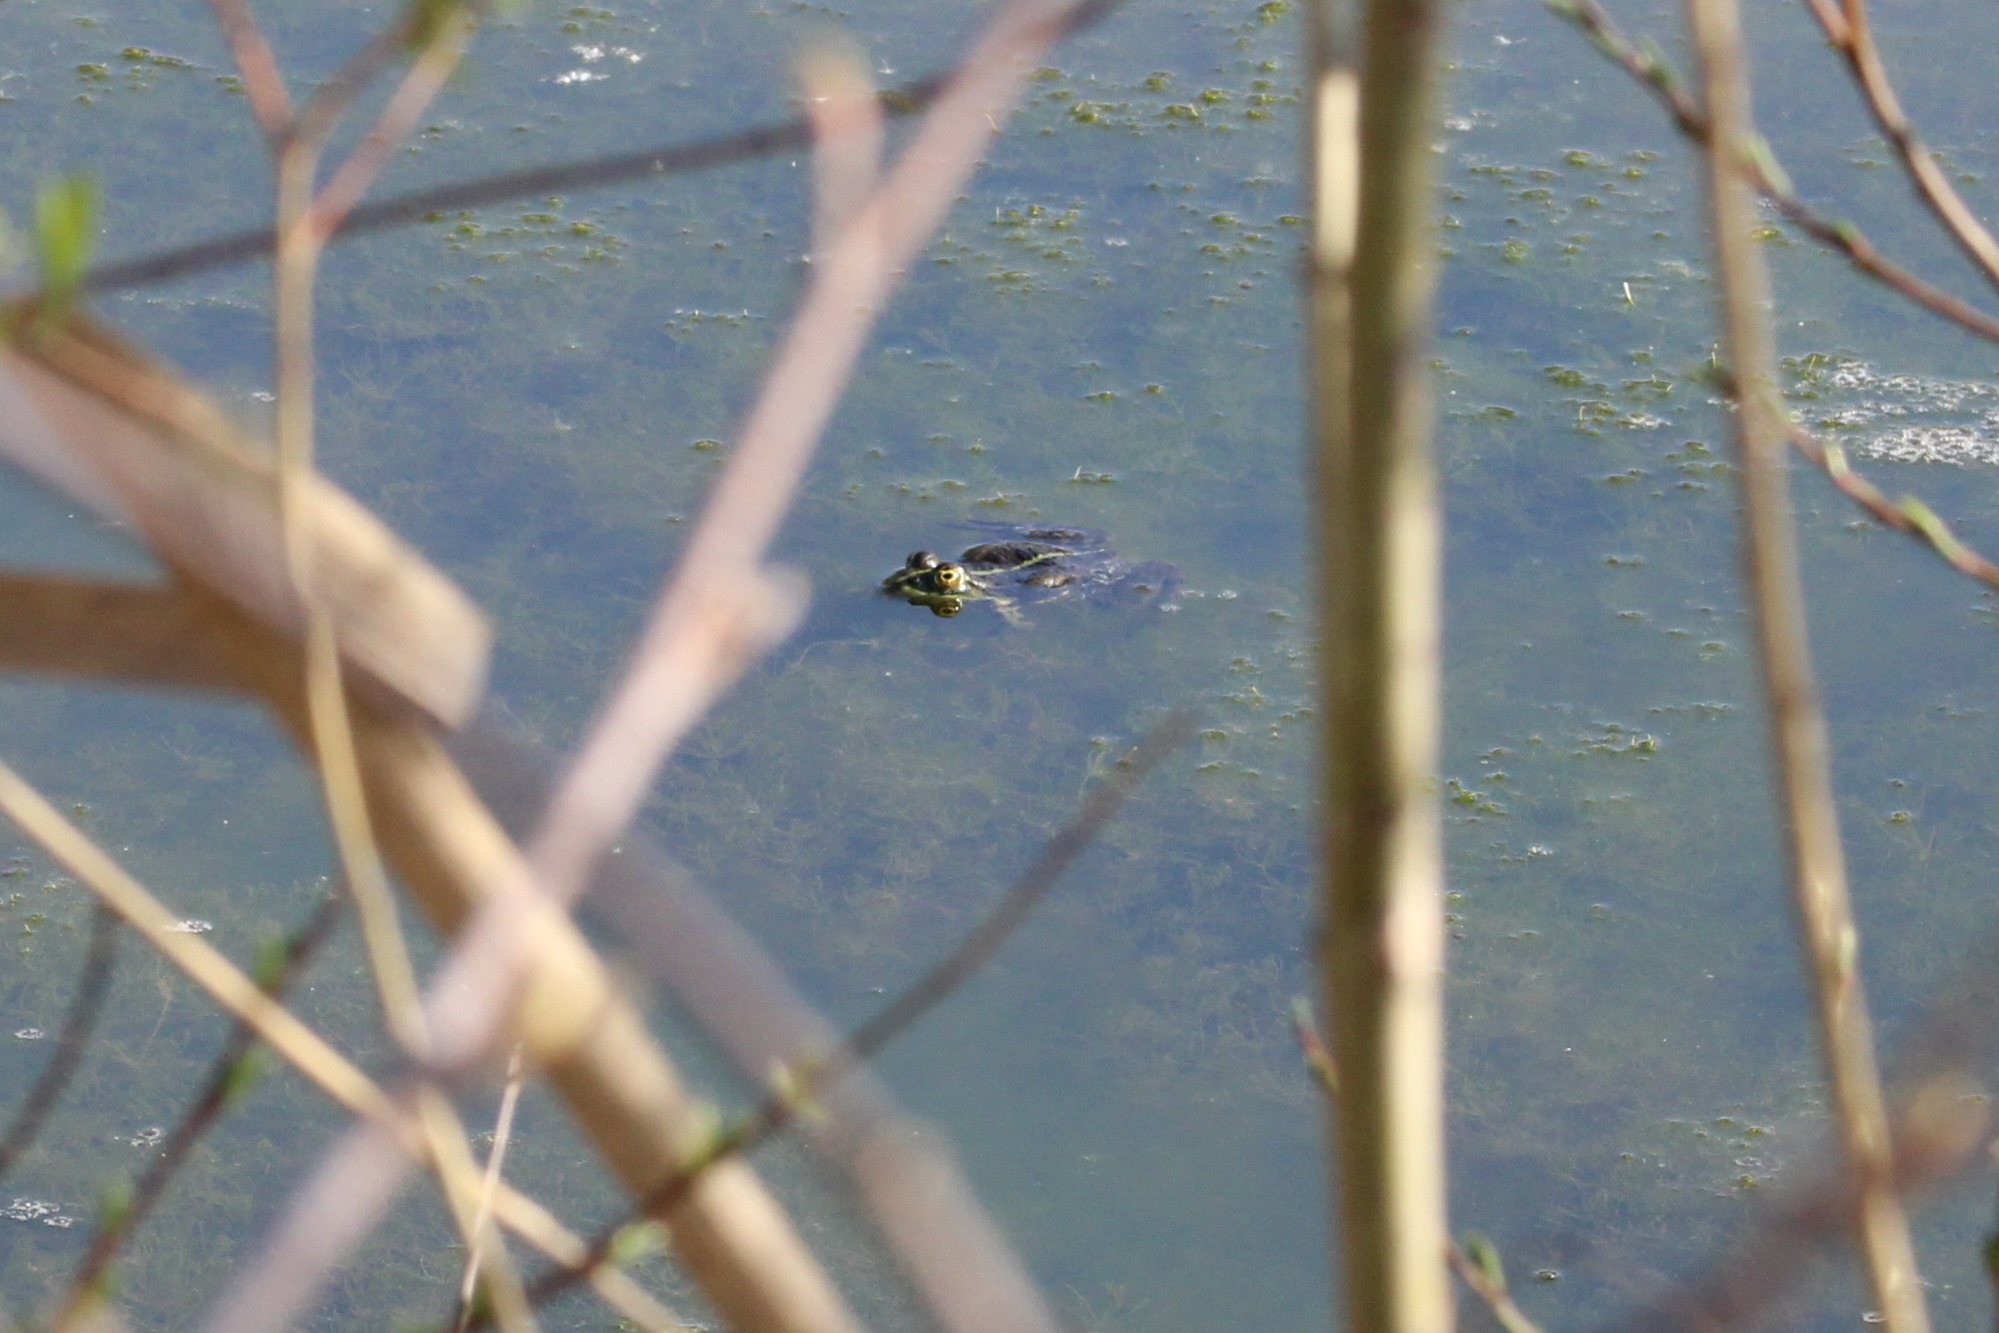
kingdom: Animalia
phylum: Chordata
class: Amphibia
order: Anura
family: Ranidae
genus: Pelophylax
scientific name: Pelophylax
